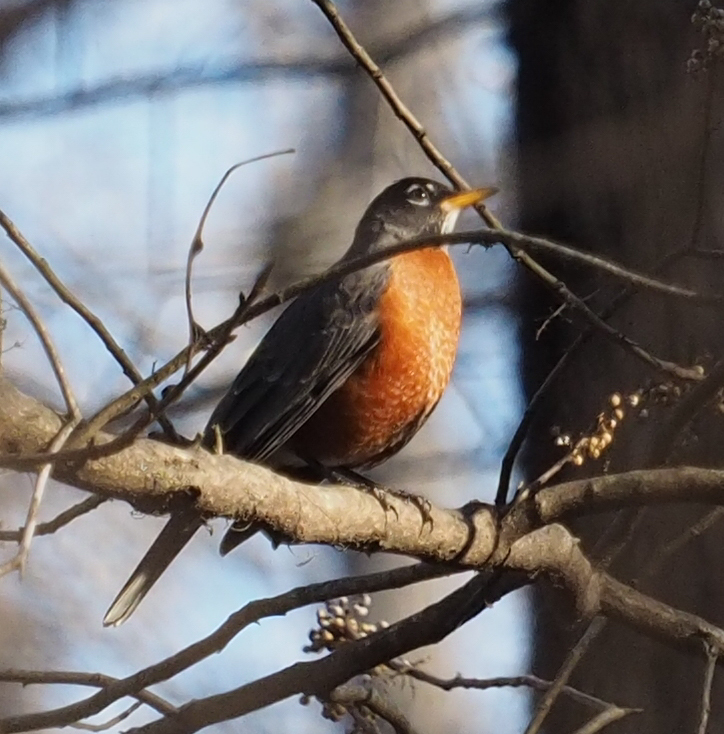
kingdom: Animalia
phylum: Chordata
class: Aves
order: Passeriformes
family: Turdidae
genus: Turdus
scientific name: Turdus migratorius
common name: American robin
